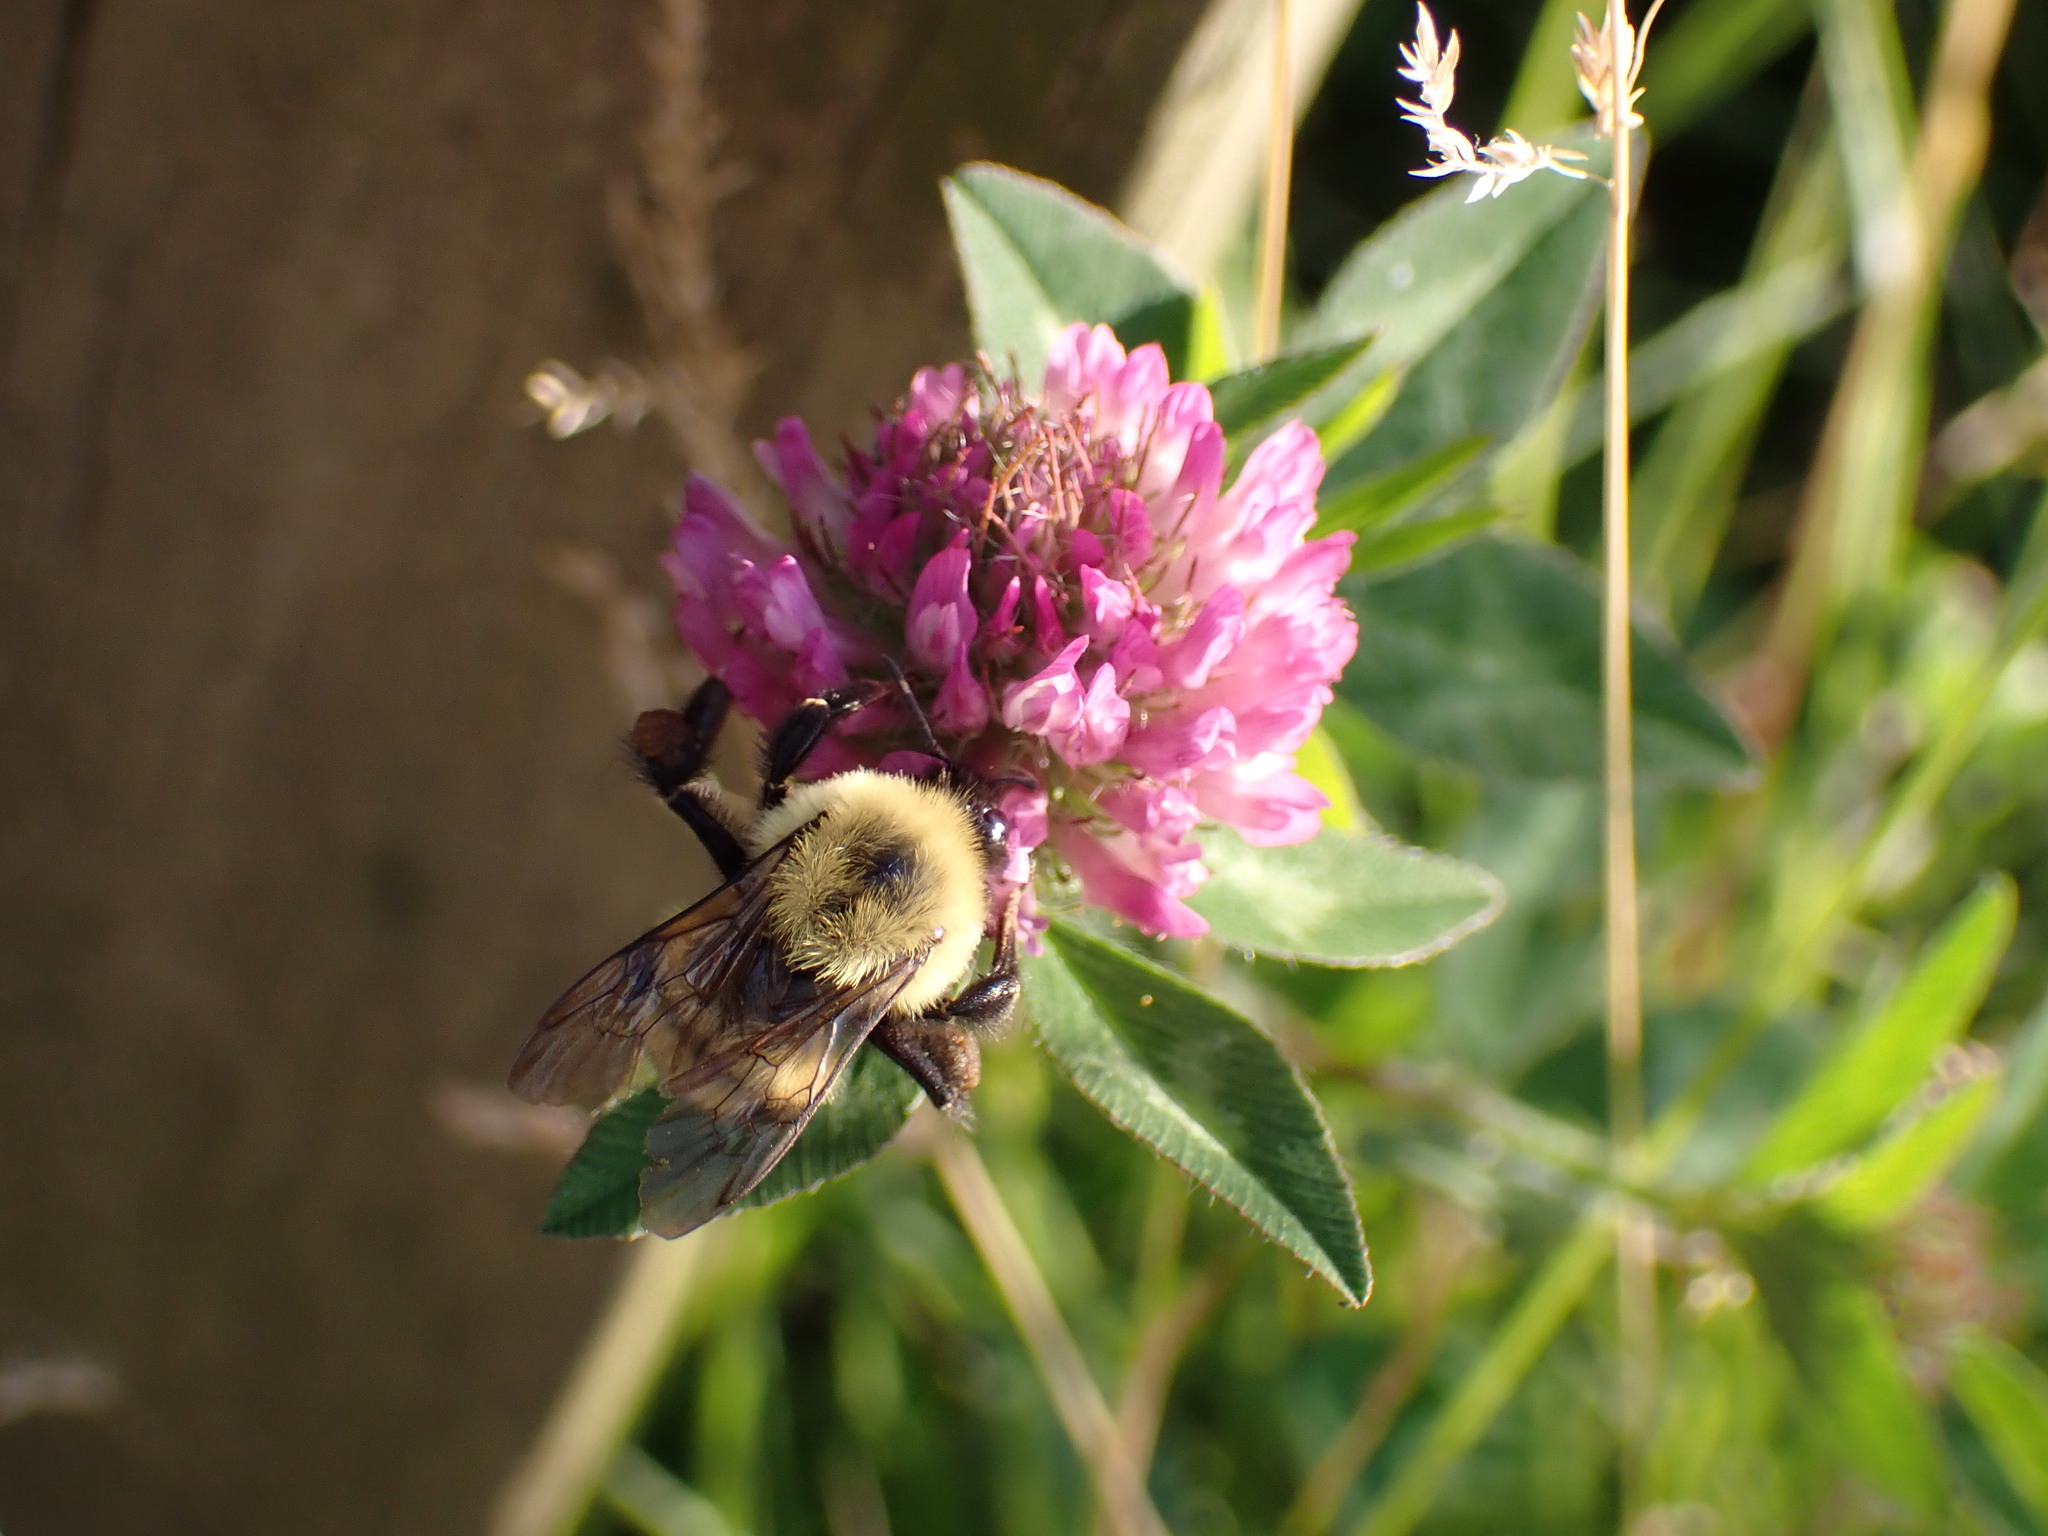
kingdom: Animalia
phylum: Arthropoda
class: Insecta
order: Hymenoptera
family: Apidae
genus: Bombus
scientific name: Bombus bimaculatus
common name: Two-spotted bumble bee
